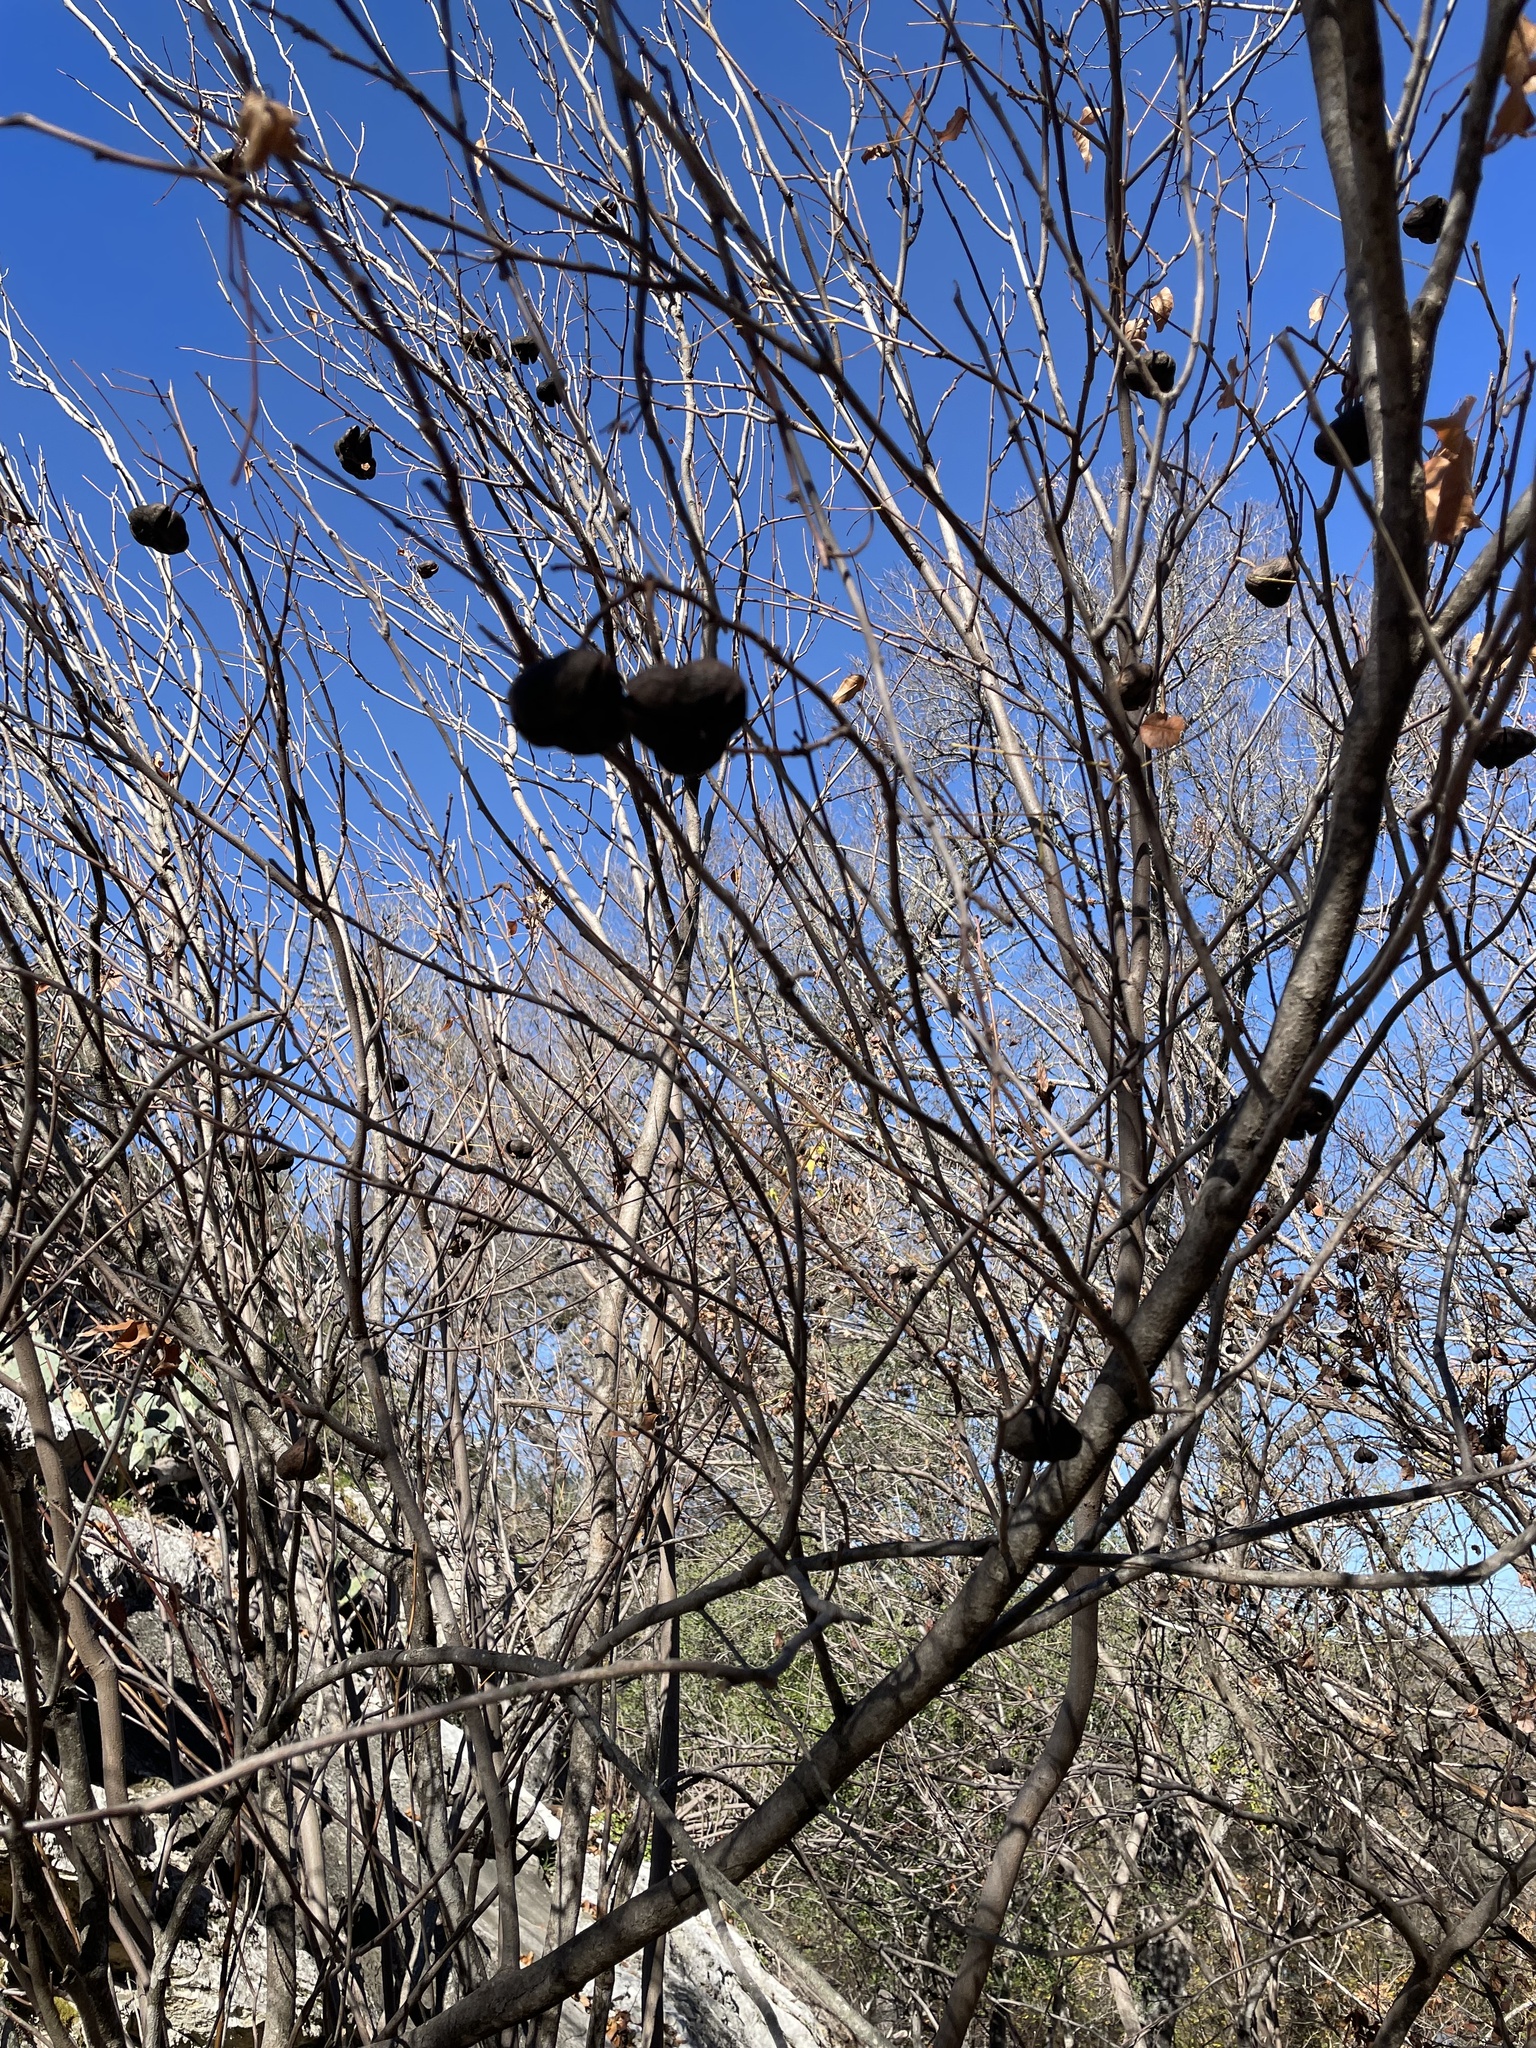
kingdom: Plantae
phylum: Tracheophyta
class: Magnoliopsida
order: Sapindales
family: Sapindaceae
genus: Ungnadia
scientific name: Ungnadia speciosa
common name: Texas-buckeye
